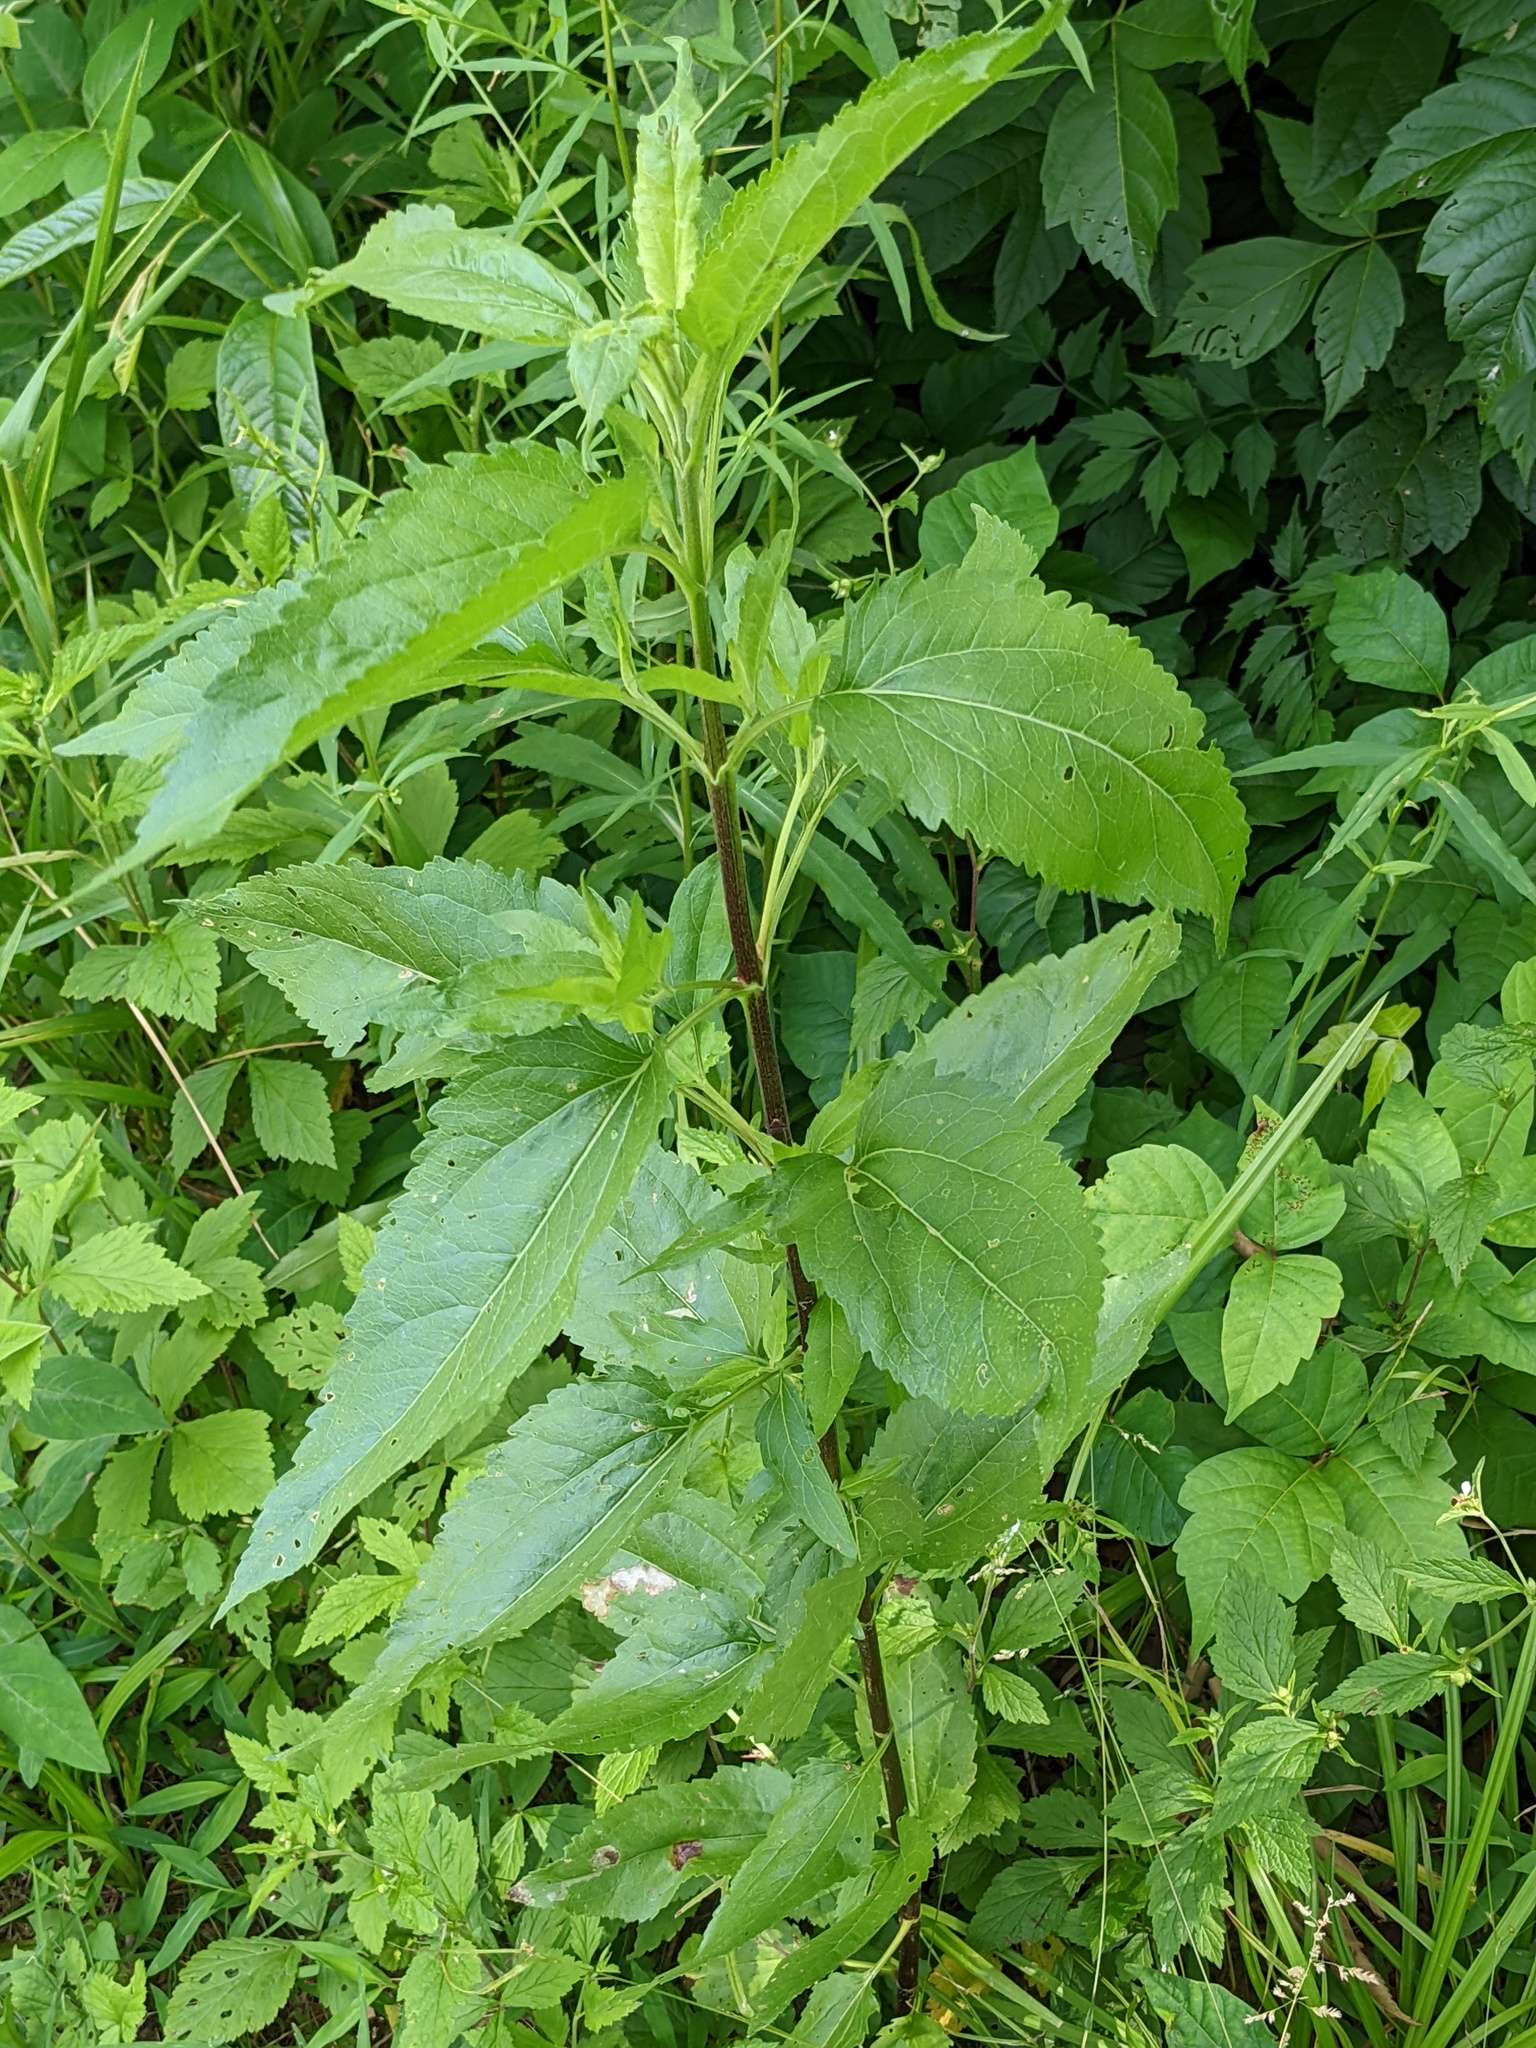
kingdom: Plantae
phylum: Tracheophyta
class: Magnoliopsida
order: Asterales
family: Asteraceae
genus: Eupatorium
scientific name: Eupatorium serotinum
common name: Late boneset
